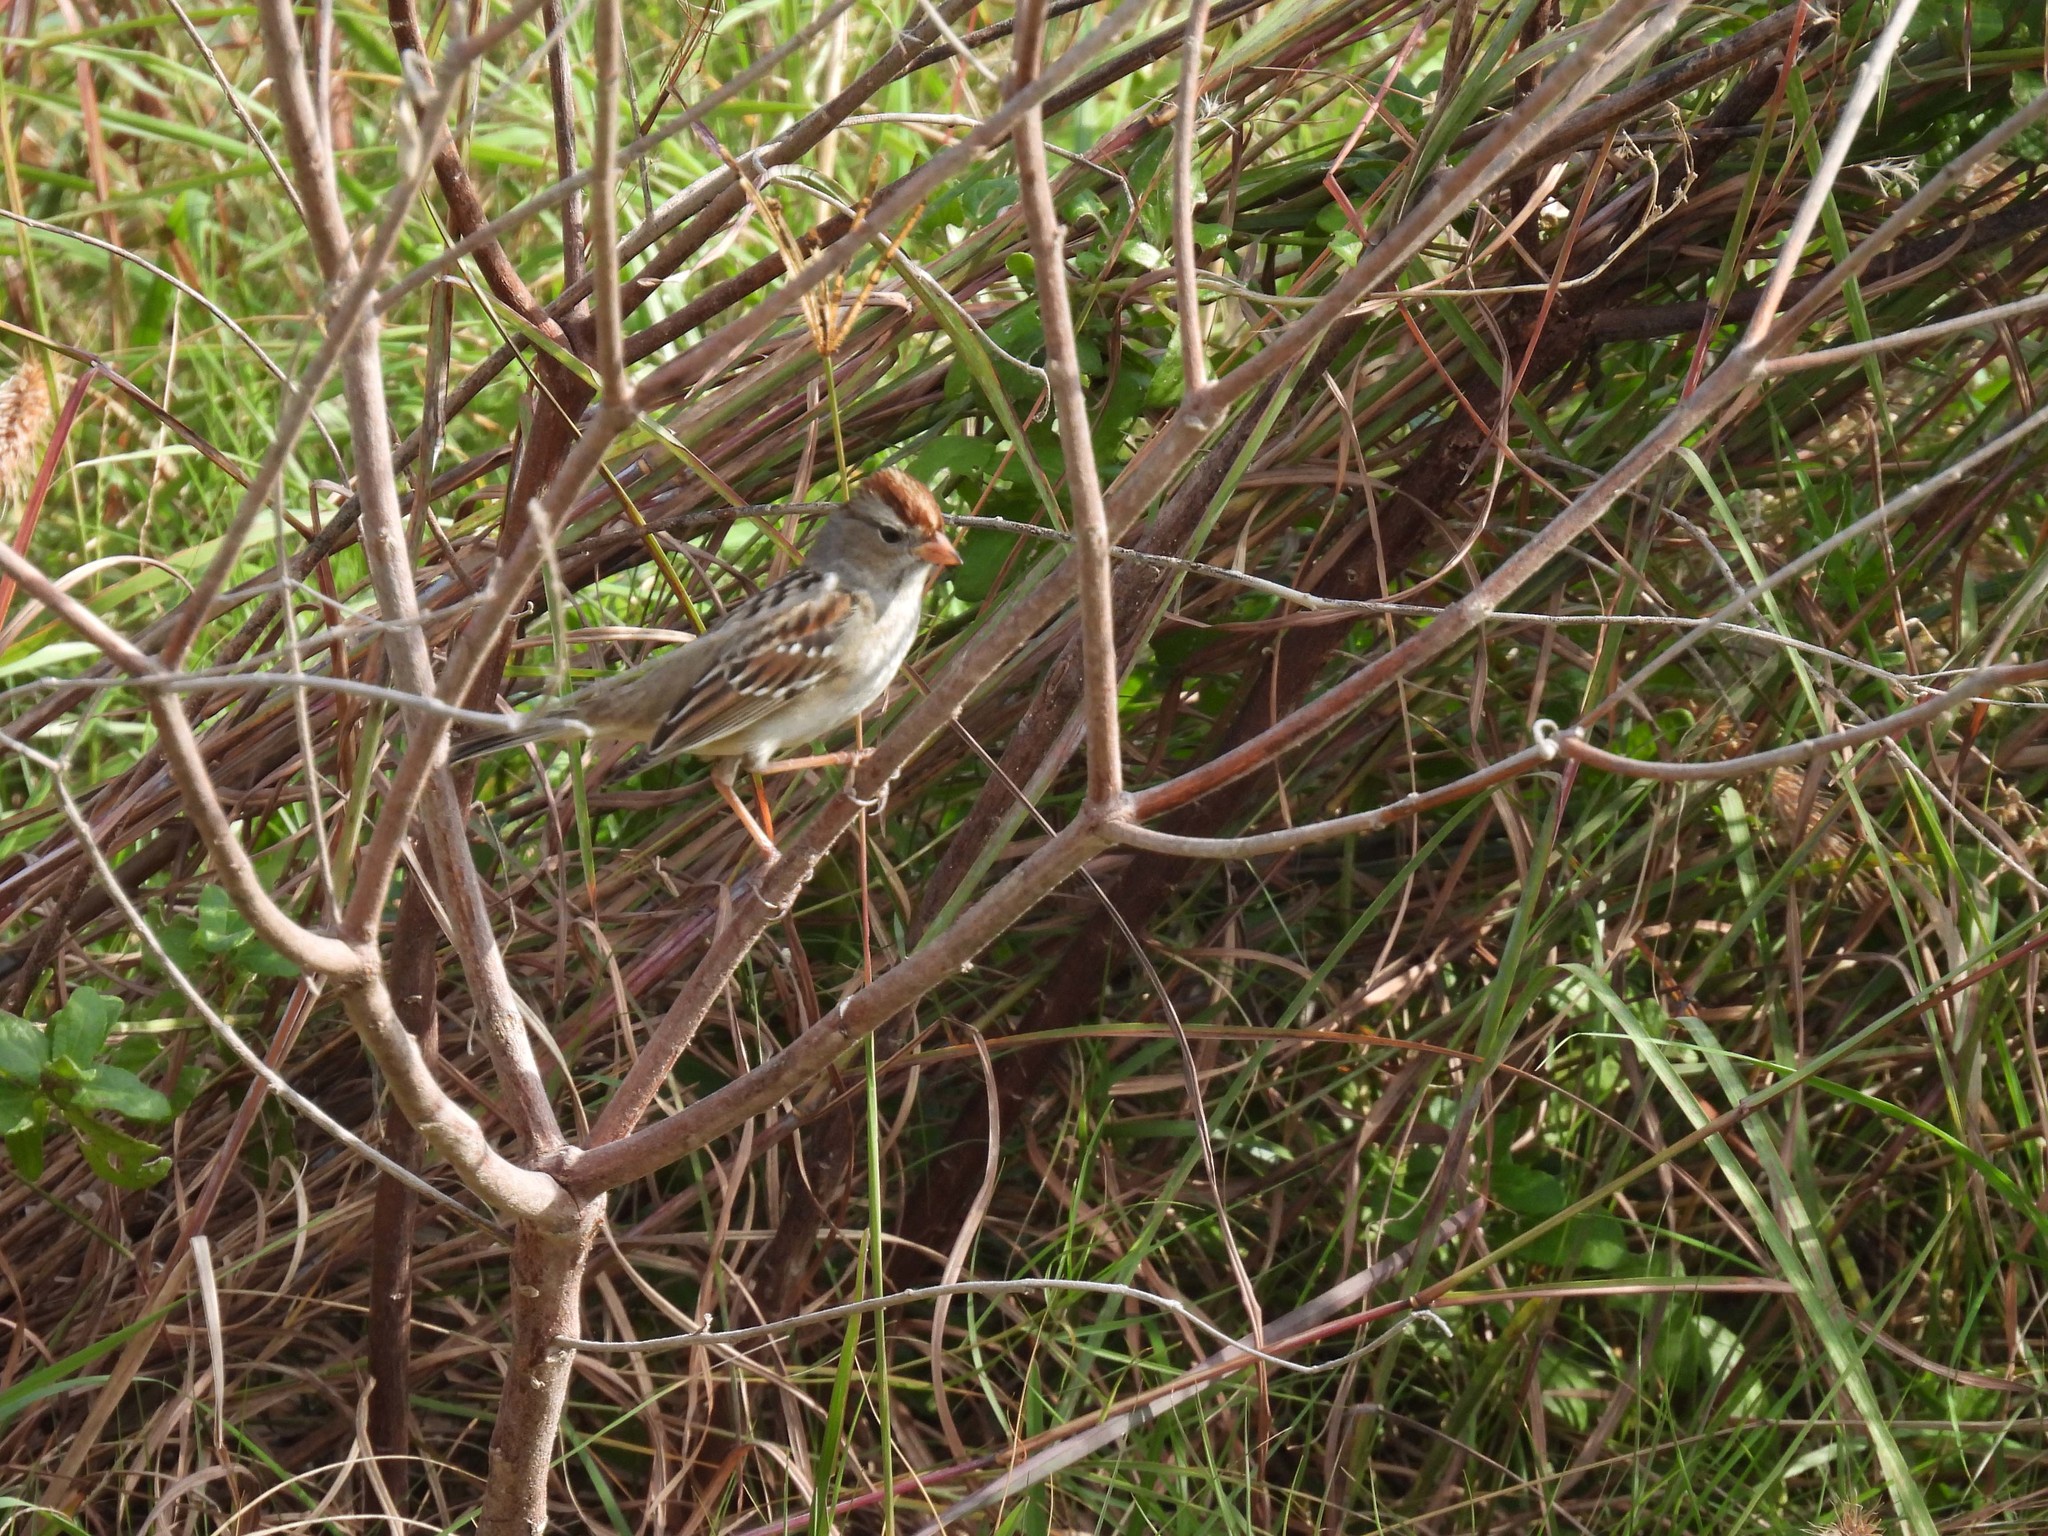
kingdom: Animalia
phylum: Chordata
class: Aves
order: Passeriformes
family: Passerellidae
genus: Zonotrichia
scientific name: Zonotrichia leucophrys
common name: White-crowned sparrow
